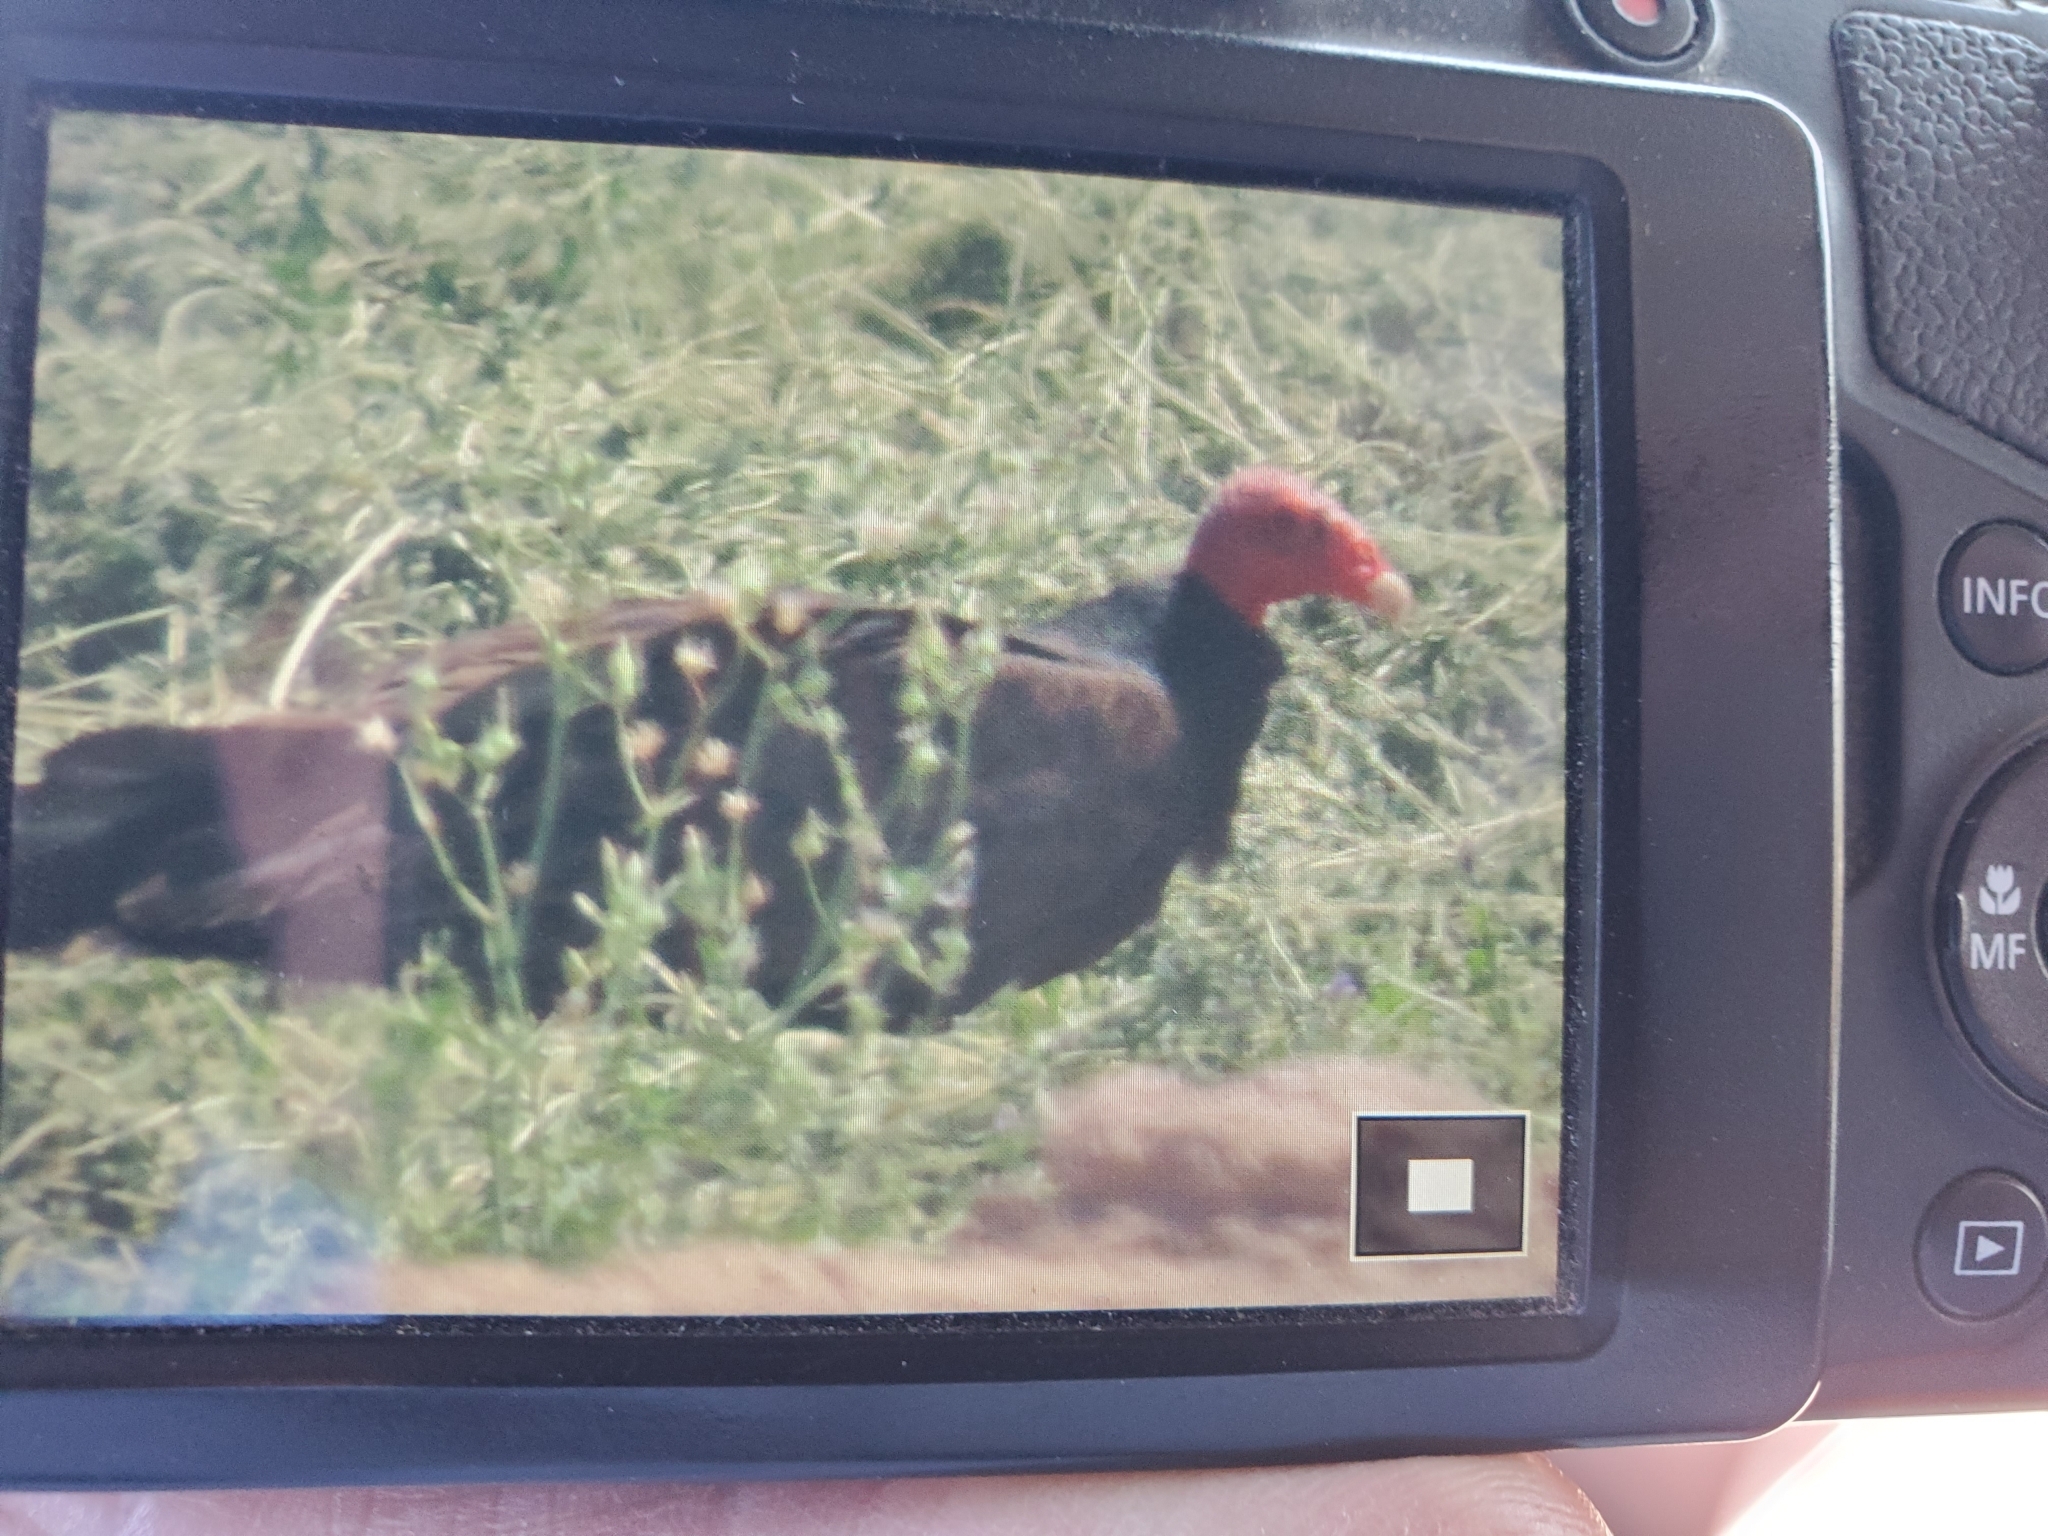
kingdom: Animalia
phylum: Chordata
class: Aves
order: Accipitriformes
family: Cathartidae
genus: Cathartes
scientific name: Cathartes aura
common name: Turkey vulture
